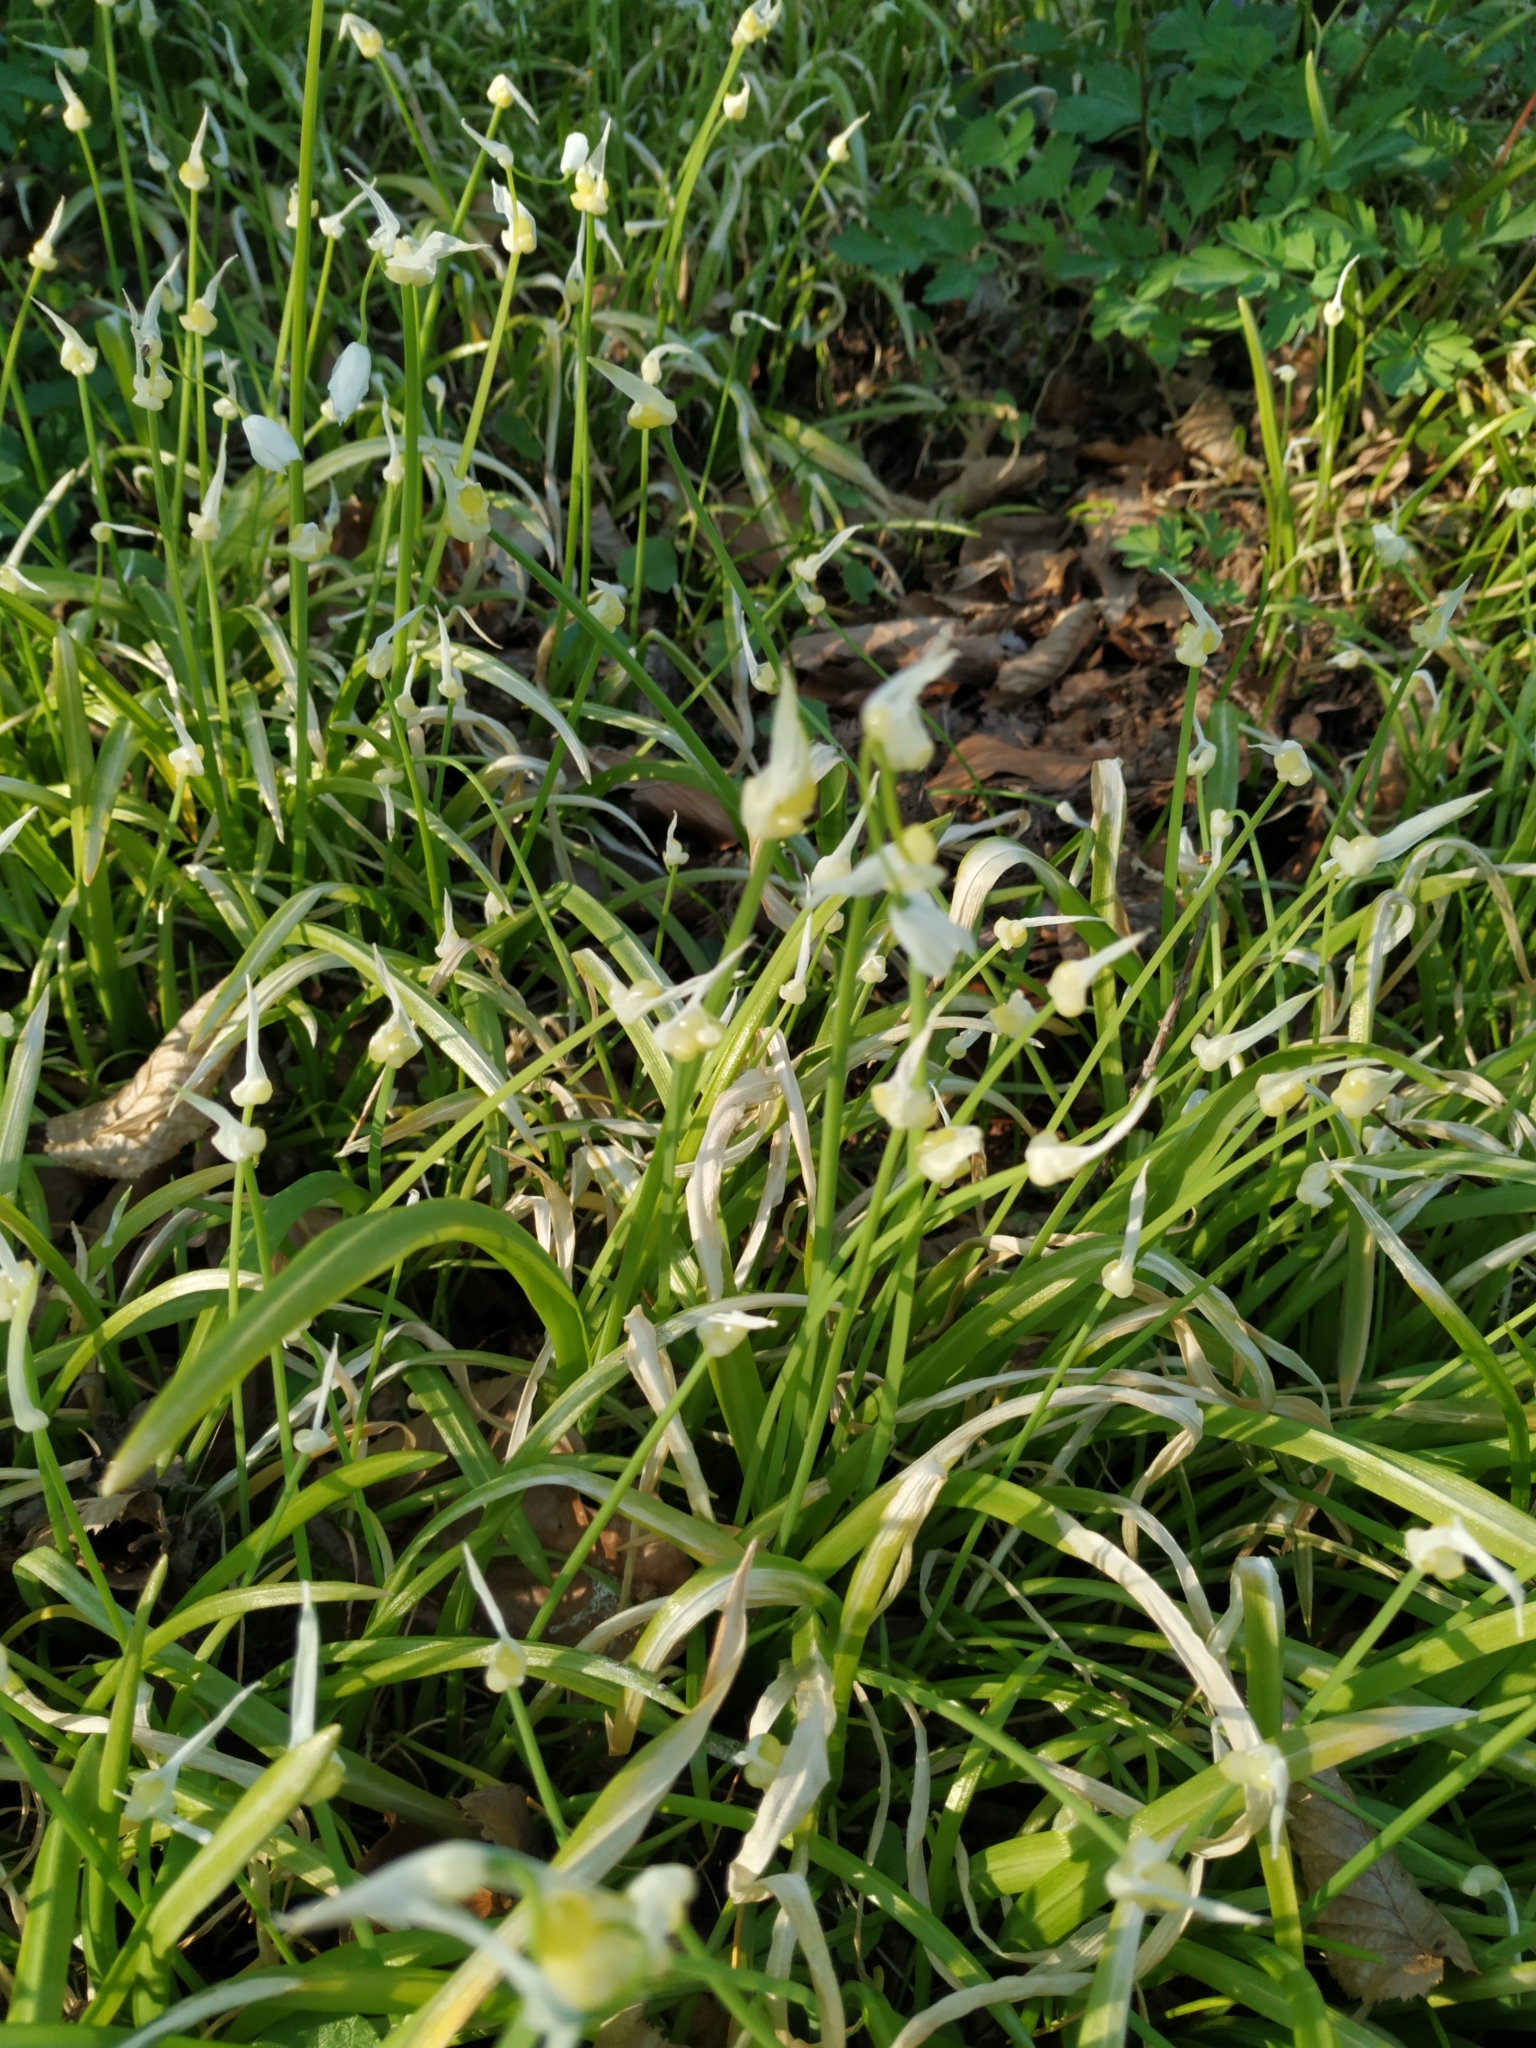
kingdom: Plantae
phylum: Tracheophyta
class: Liliopsida
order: Asparagales
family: Amaryllidaceae
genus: Allium
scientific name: Allium paradoxum
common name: Few-flowered garlic
